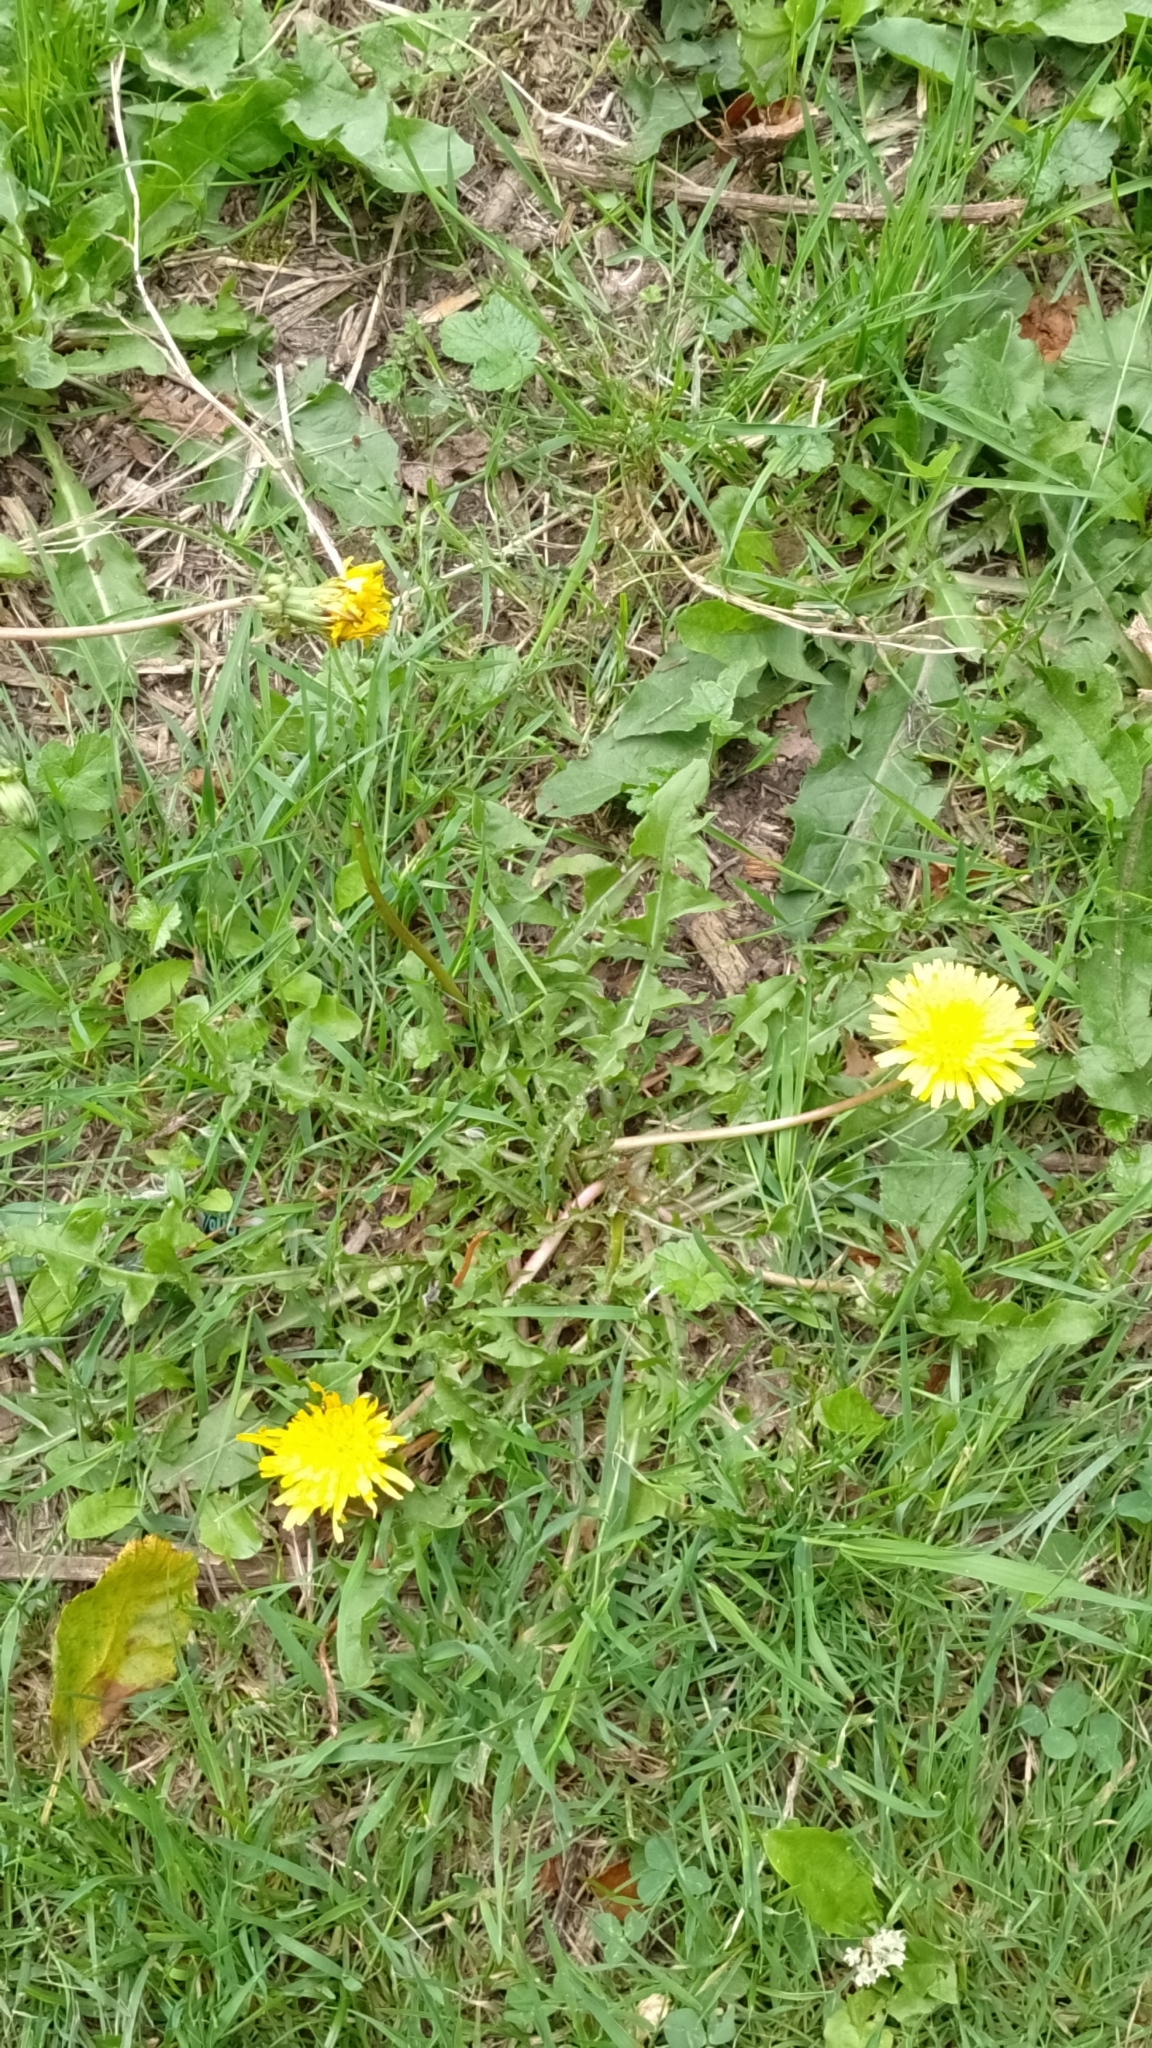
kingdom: Plantae
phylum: Tracheophyta
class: Magnoliopsida
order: Asterales
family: Asteraceae
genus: Taraxacum
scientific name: Taraxacum officinale
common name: Common dandelion
